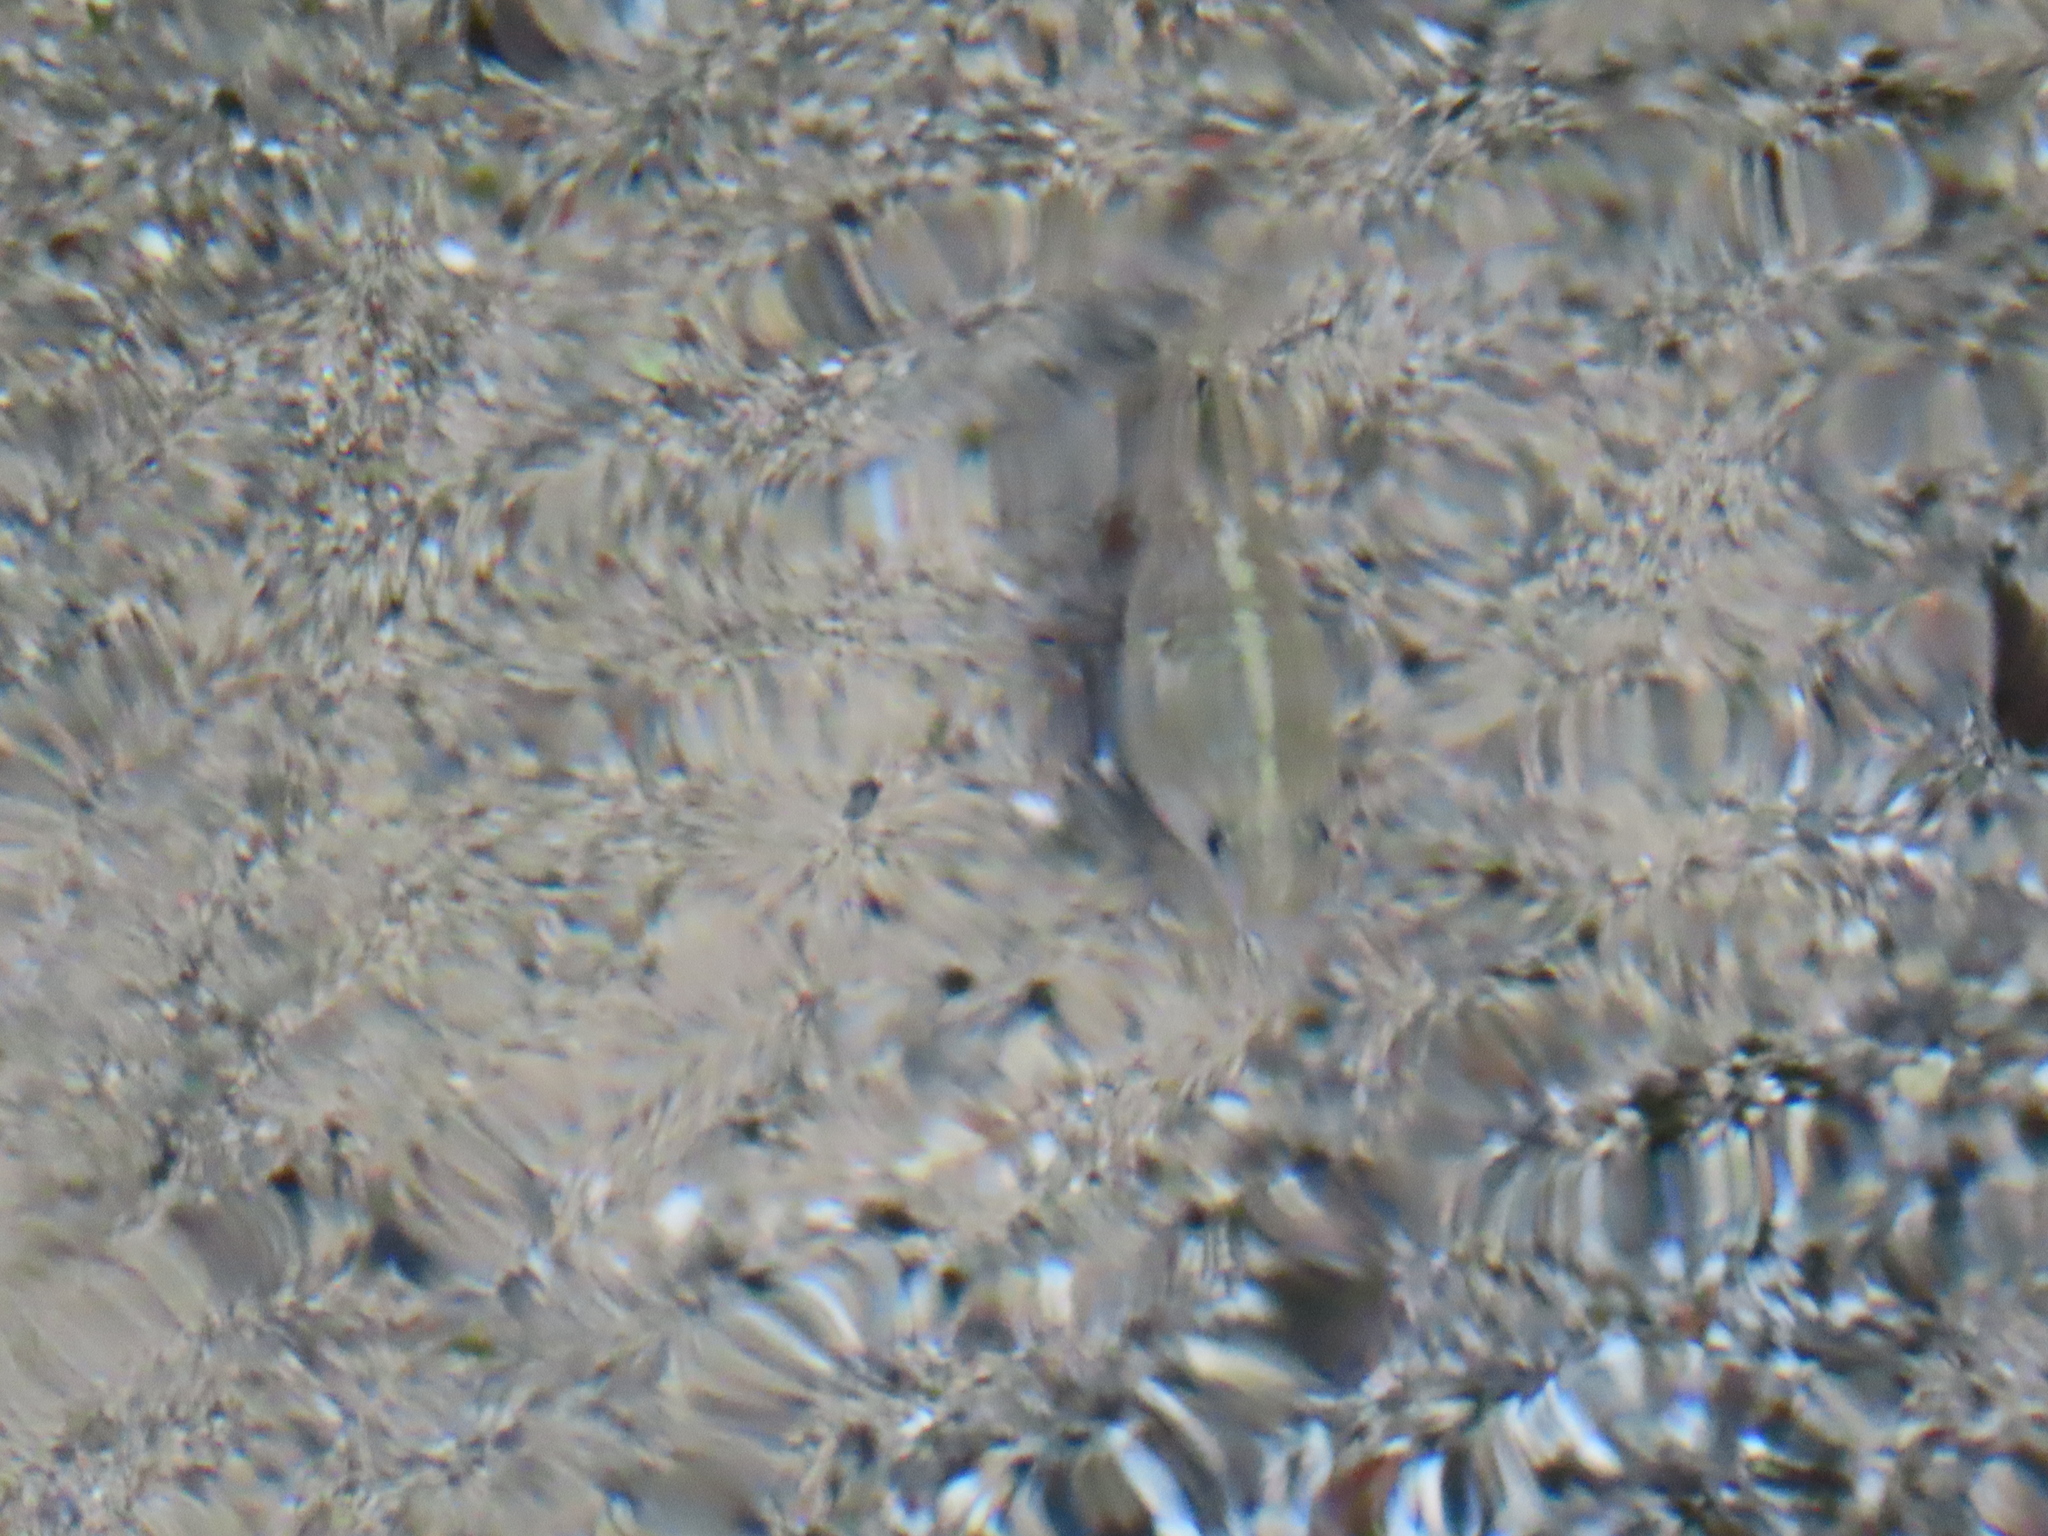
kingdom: Animalia
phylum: Chordata
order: Cyprinodontiformes
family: Cyprinodontidae
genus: Cyprinodon
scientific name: Cyprinodon nevadensis
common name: Amargosa pupfish
